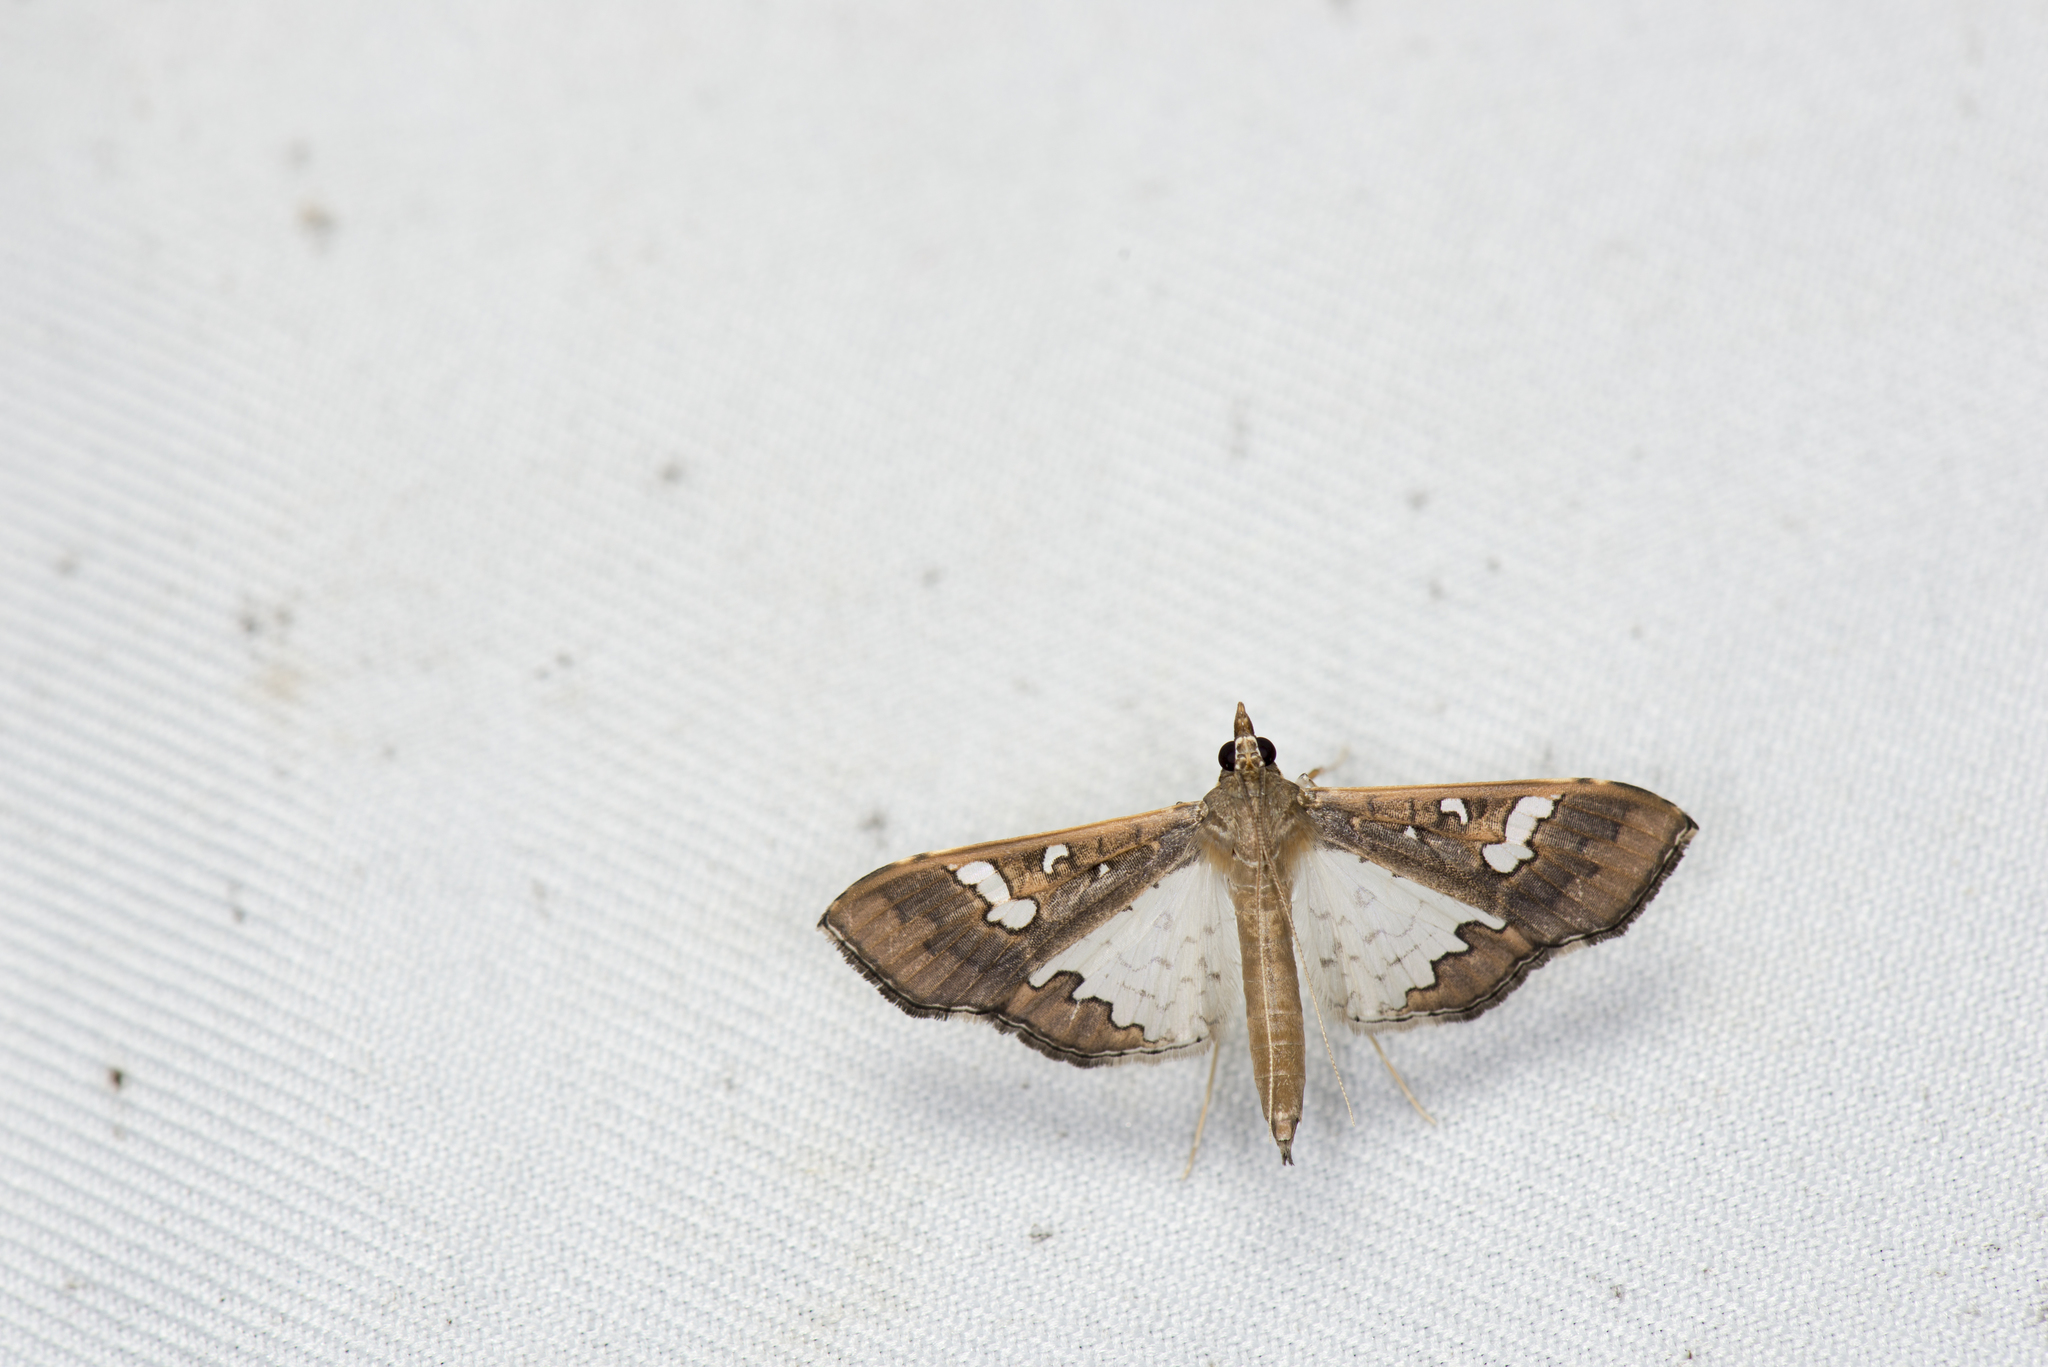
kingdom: Animalia
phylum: Arthropoda
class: Insecta
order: Lepidoptera
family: Crambidae
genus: Maruca
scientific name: Maruca vitrata
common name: Maruca pod borer
